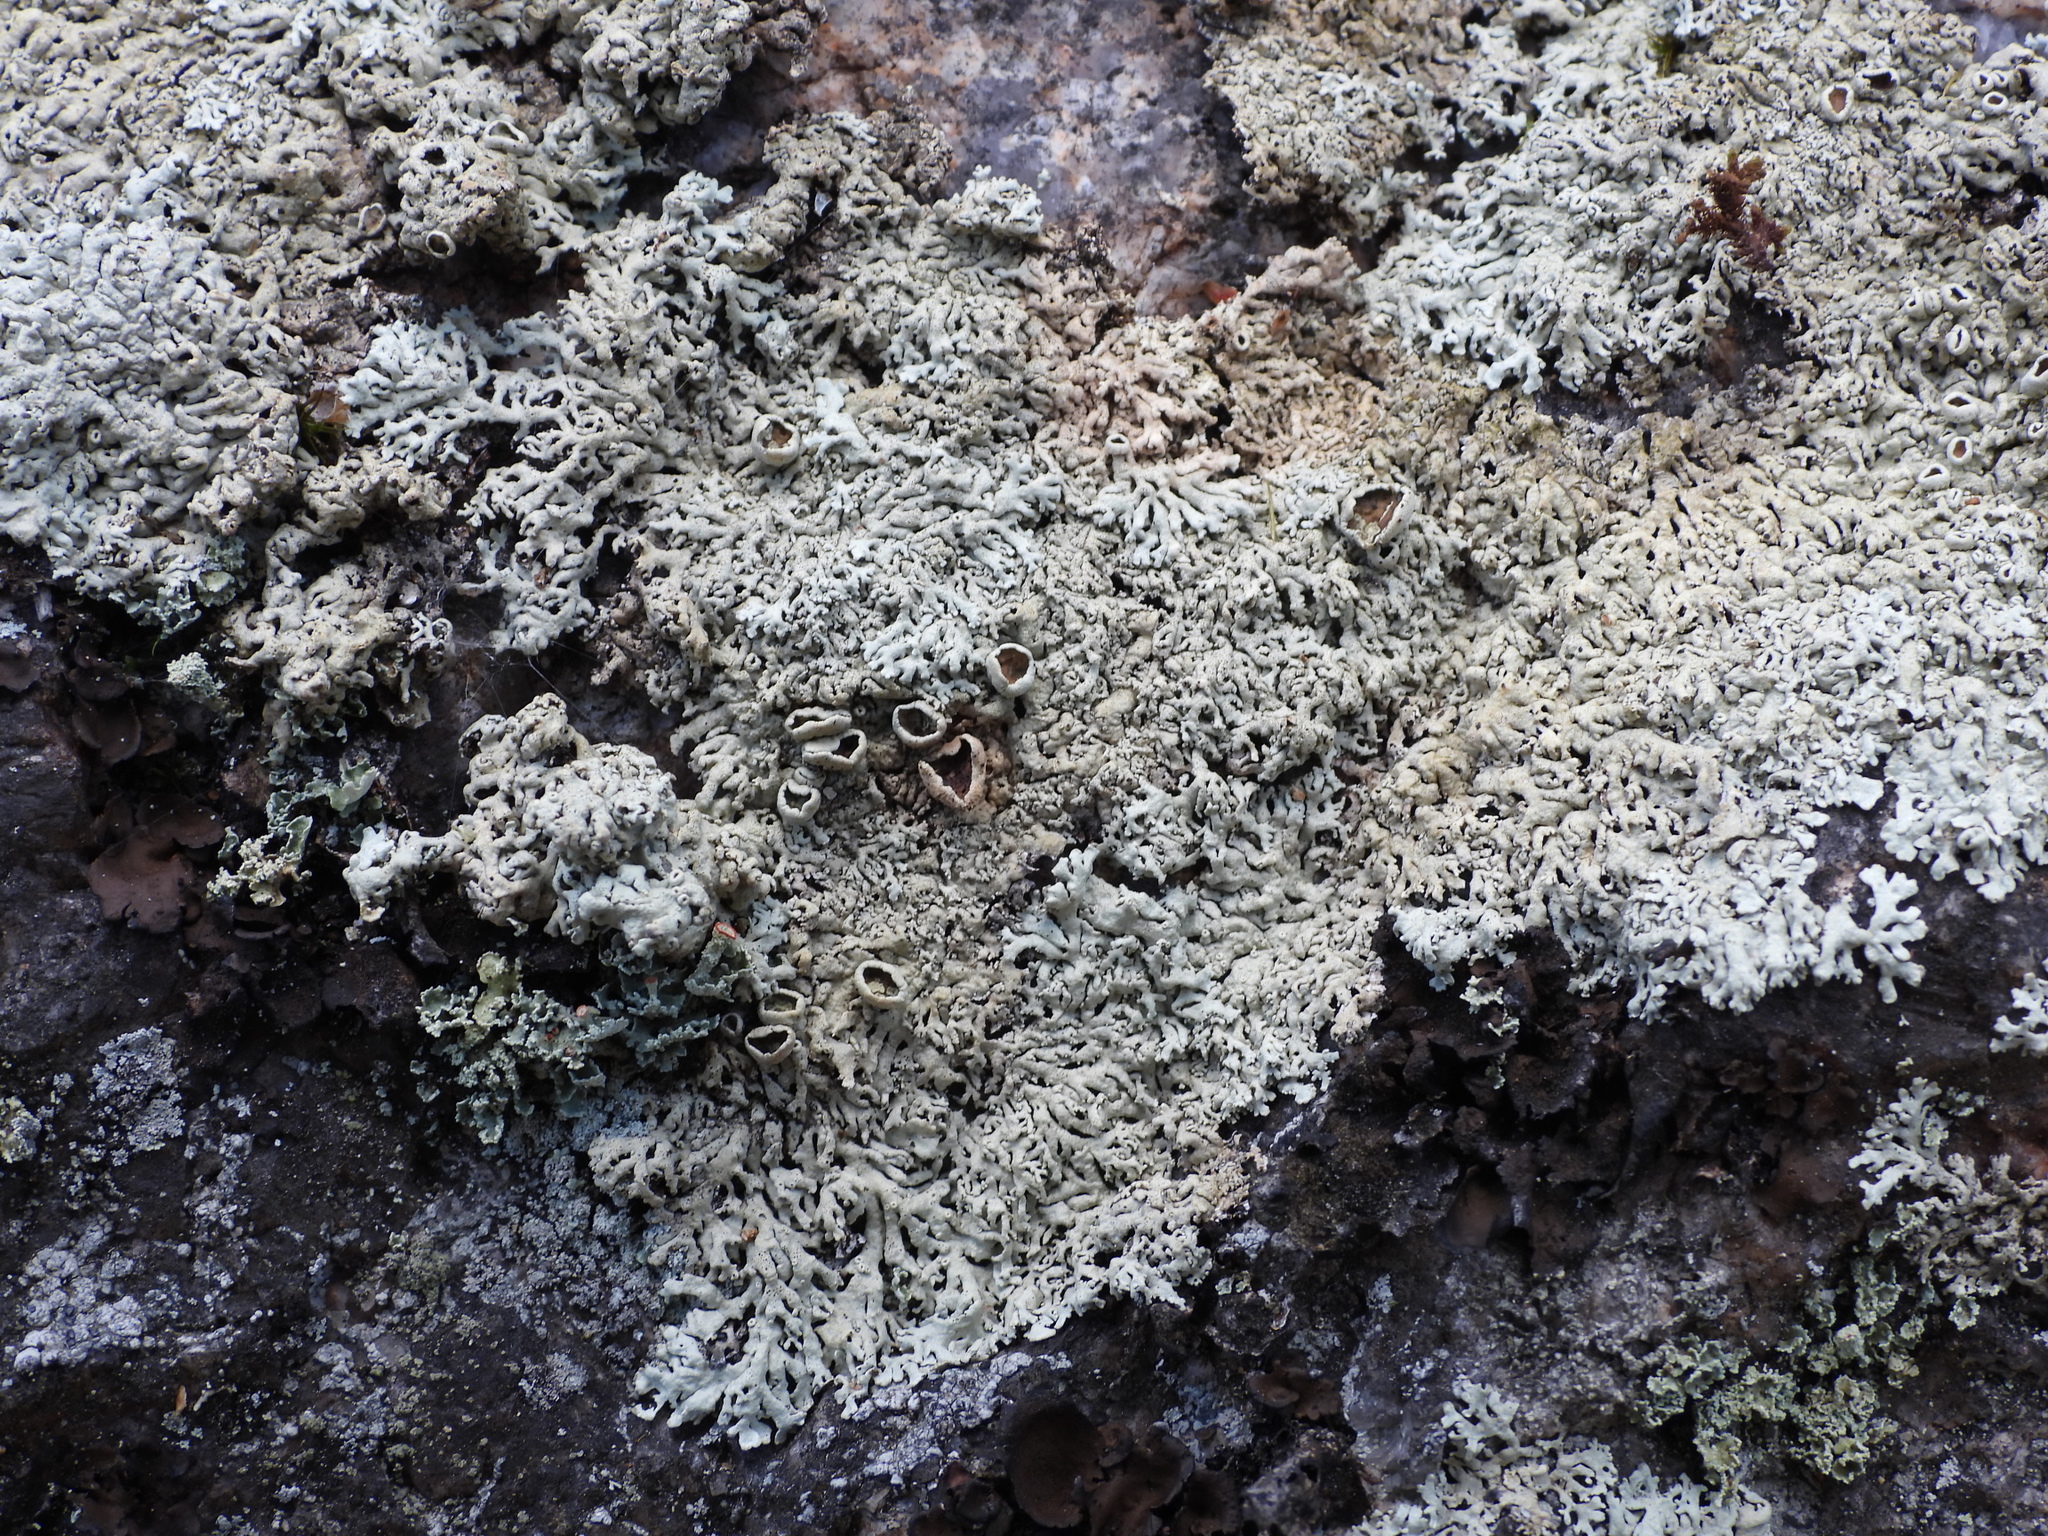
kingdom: Fungi
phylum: Ascomycota
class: Lecanoromycetes
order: Lecanorales
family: Parmeliaceae
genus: Arctoparmelia
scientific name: Arctoparmelia centrifuga
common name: Concentric ring lichen
